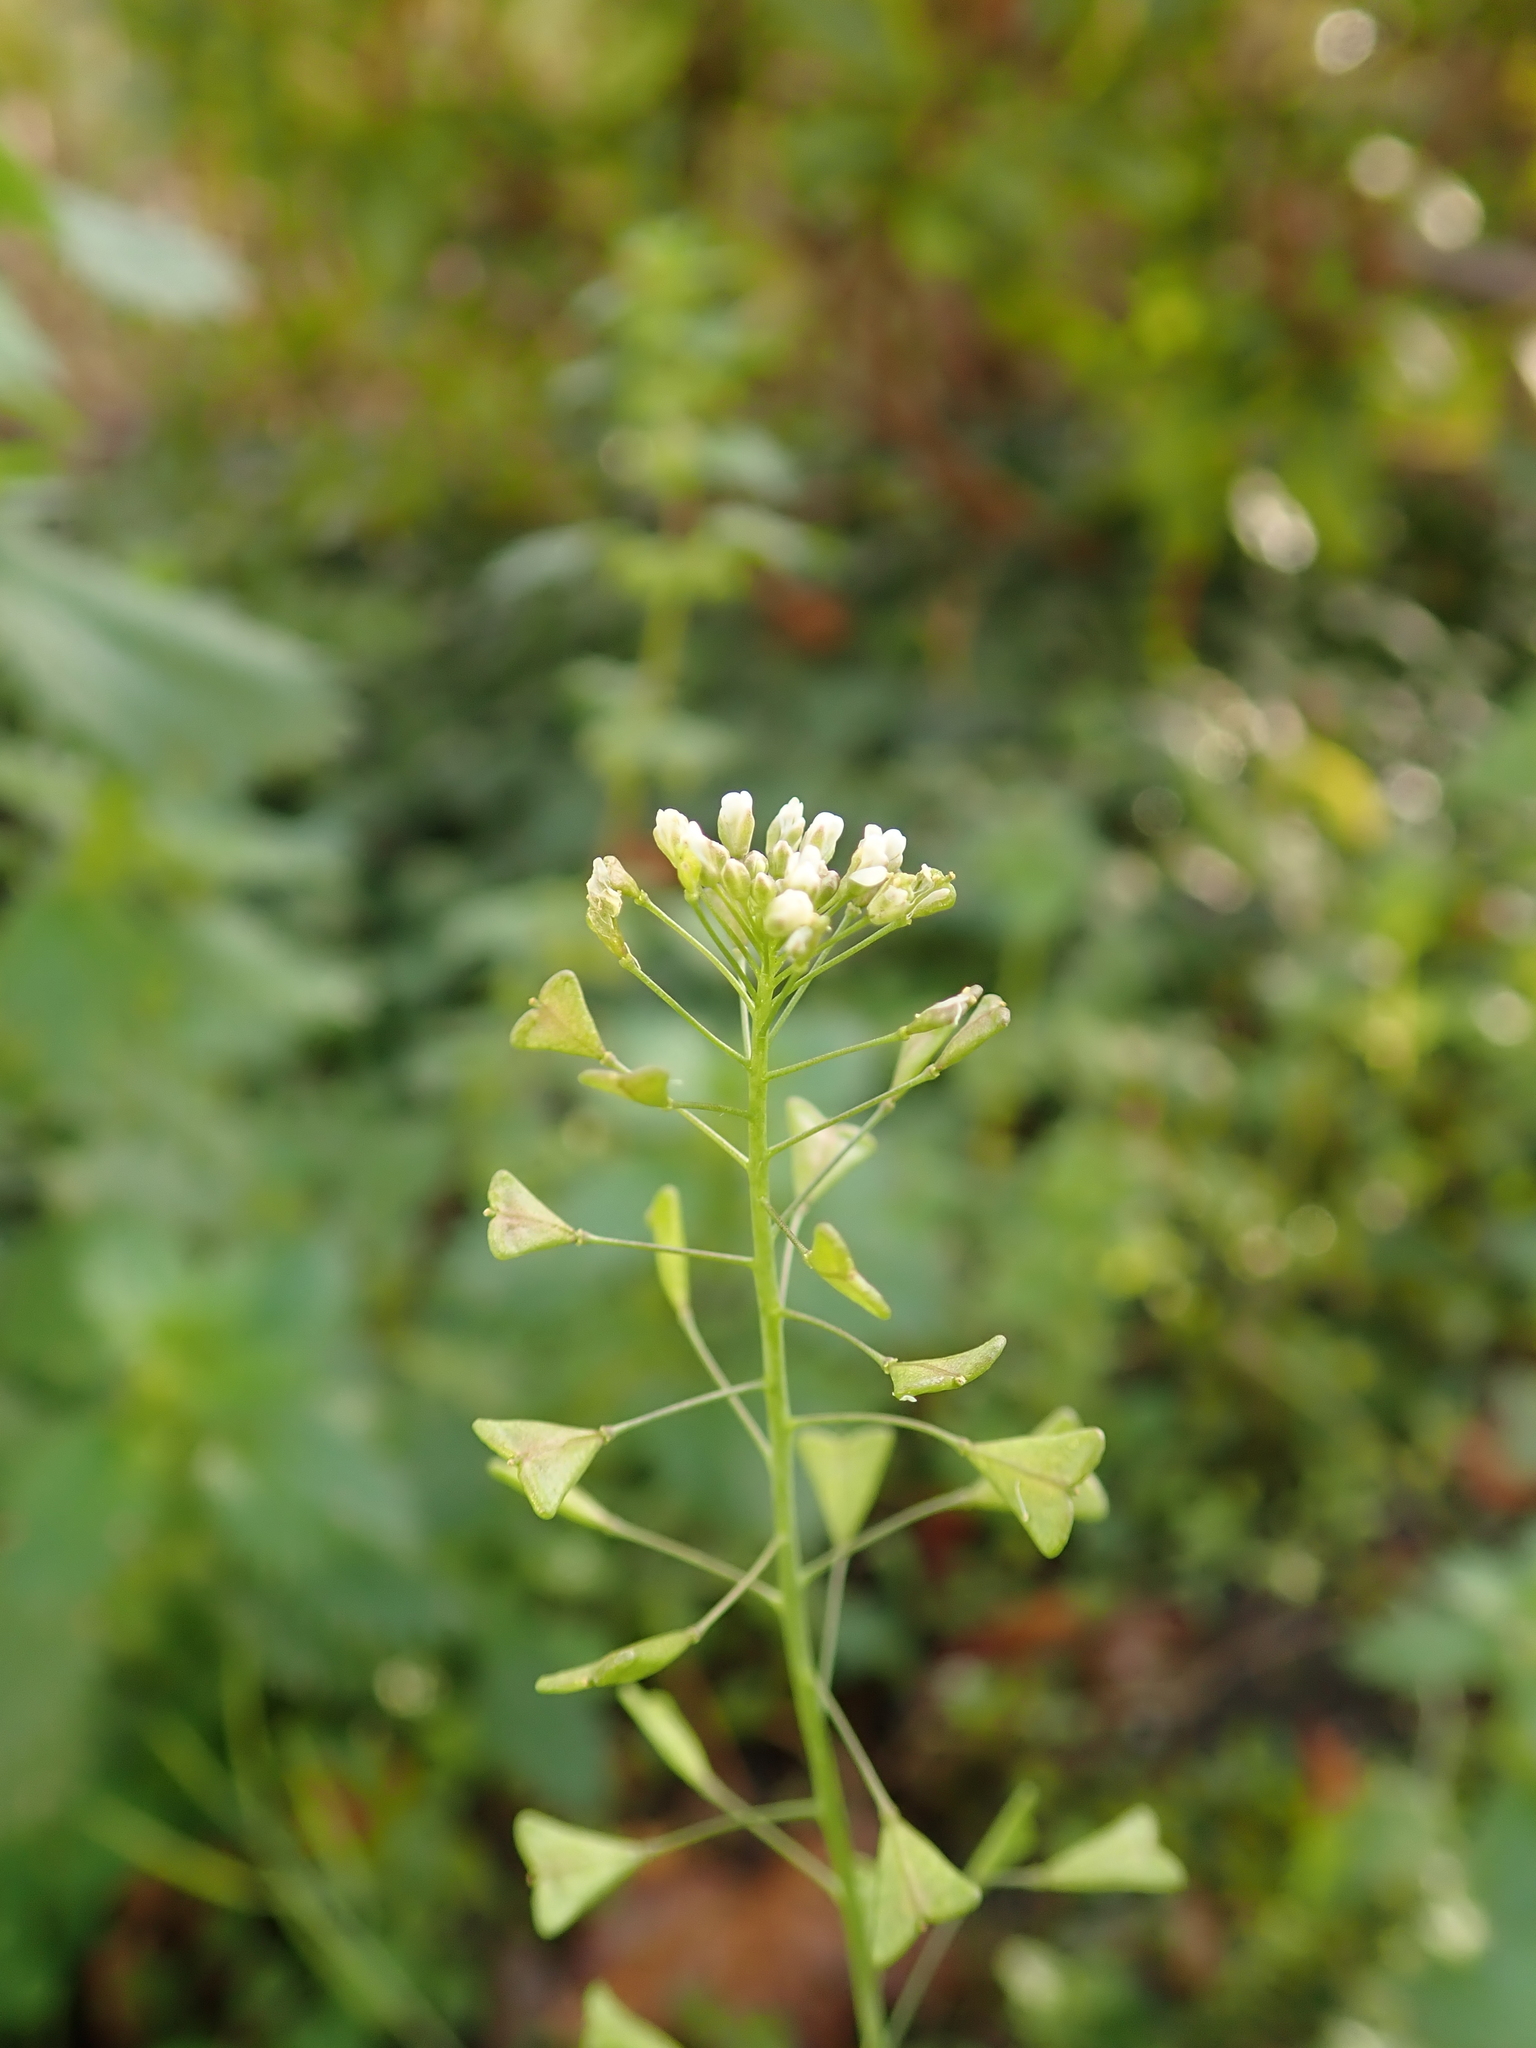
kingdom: Plantae
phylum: Tracheophyta
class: Magnoliopsida
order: Brassicales
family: Brassicaceae
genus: Capsella
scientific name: Capsella bursa-pastoris
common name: Shepherd's purse
